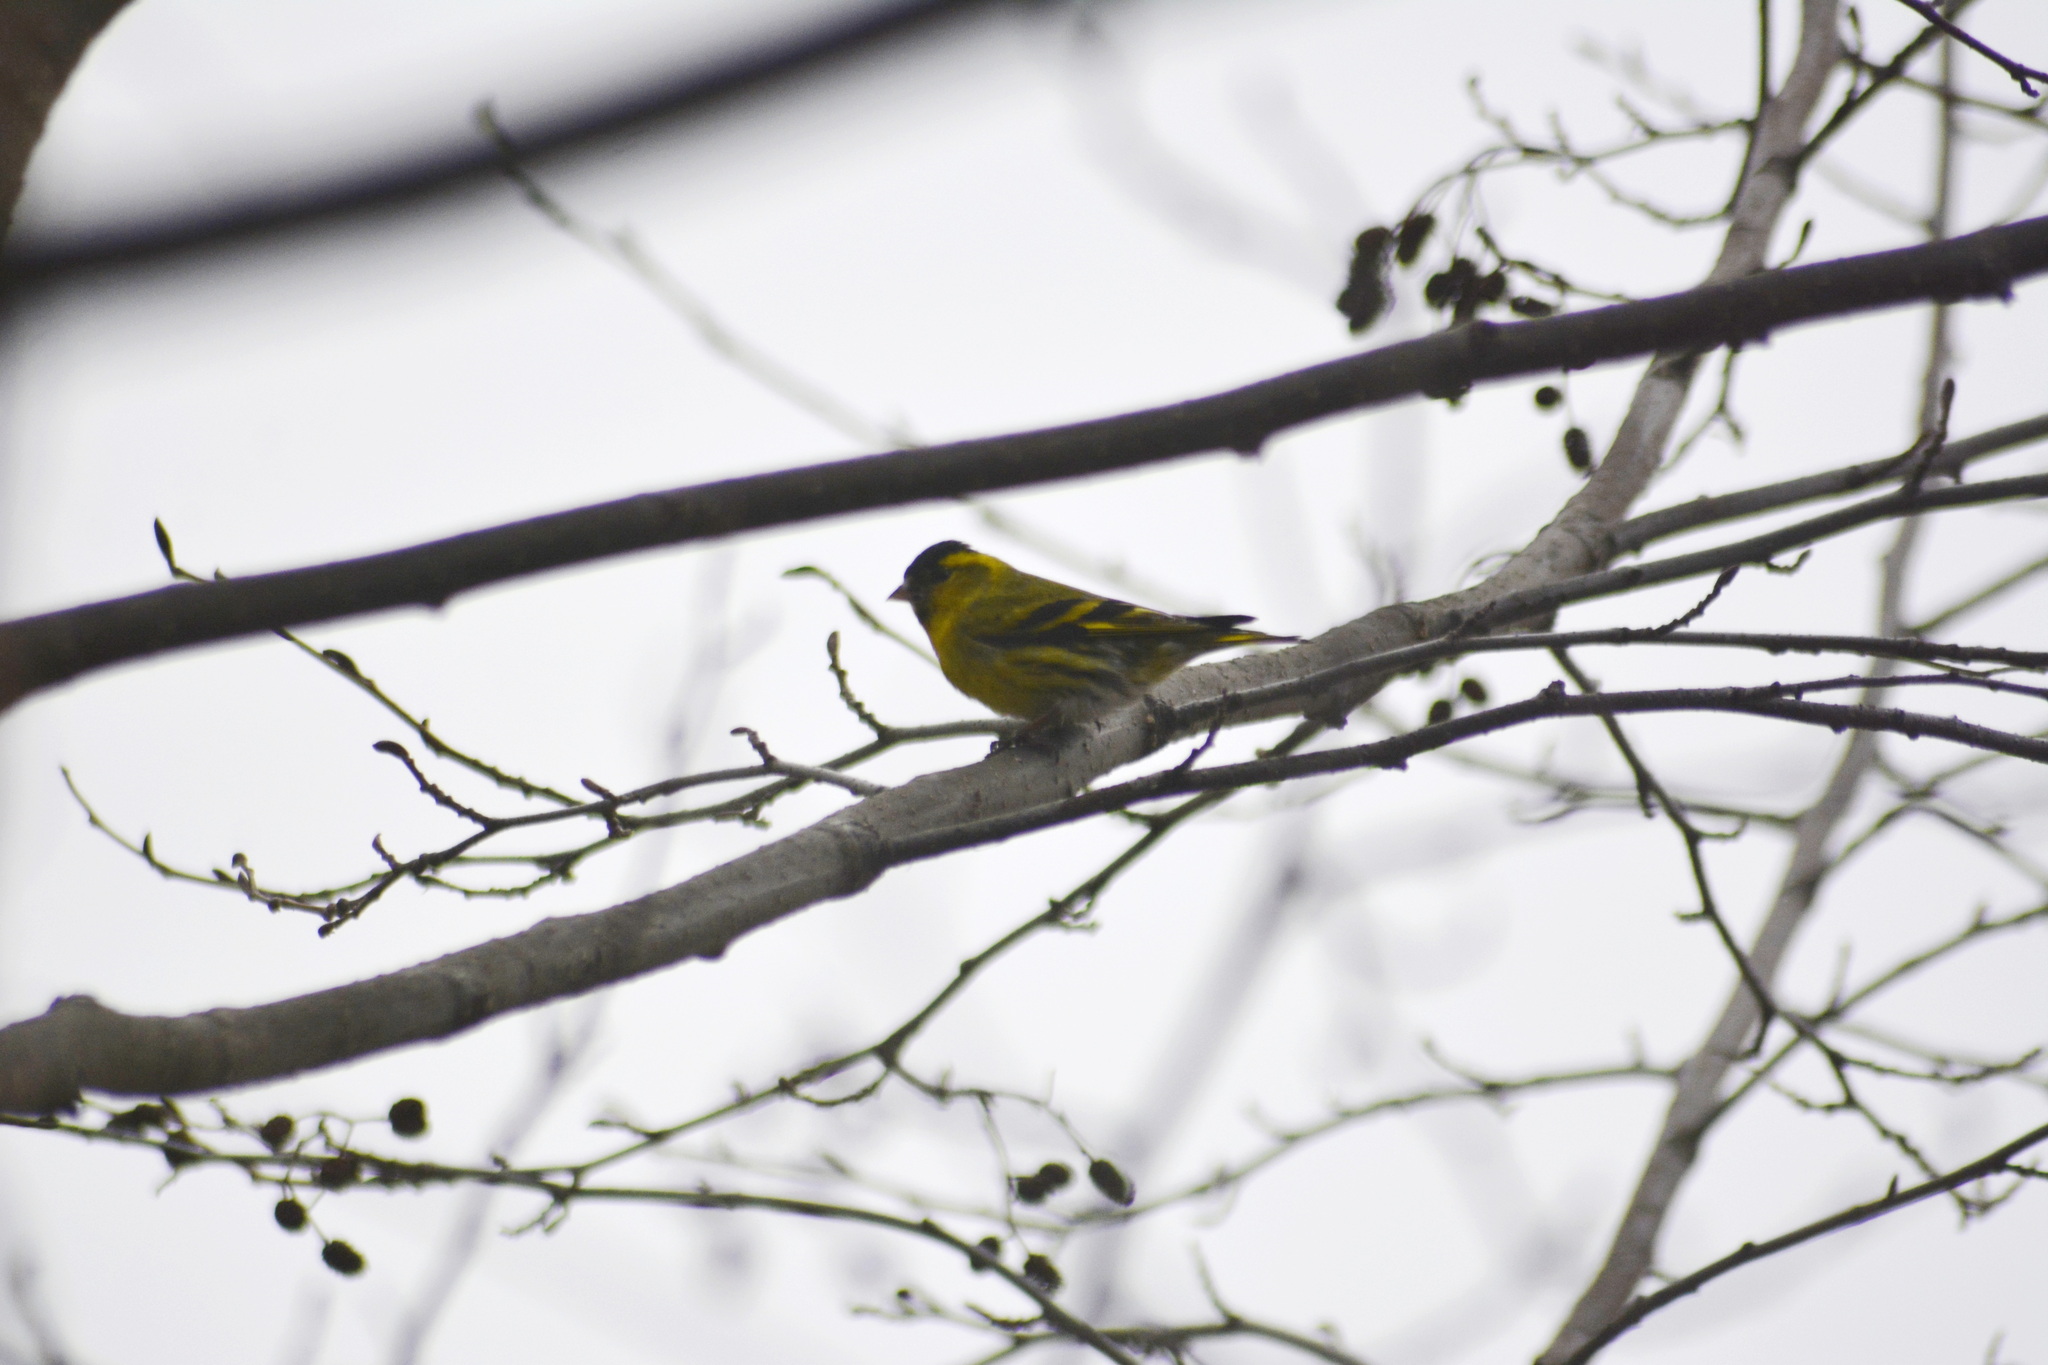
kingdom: Animalia
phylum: Chordata
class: Aves
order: Passeriformes
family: Fringillidae
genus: Spinus
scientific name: Spinus spinus
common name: Eurasian siskin
